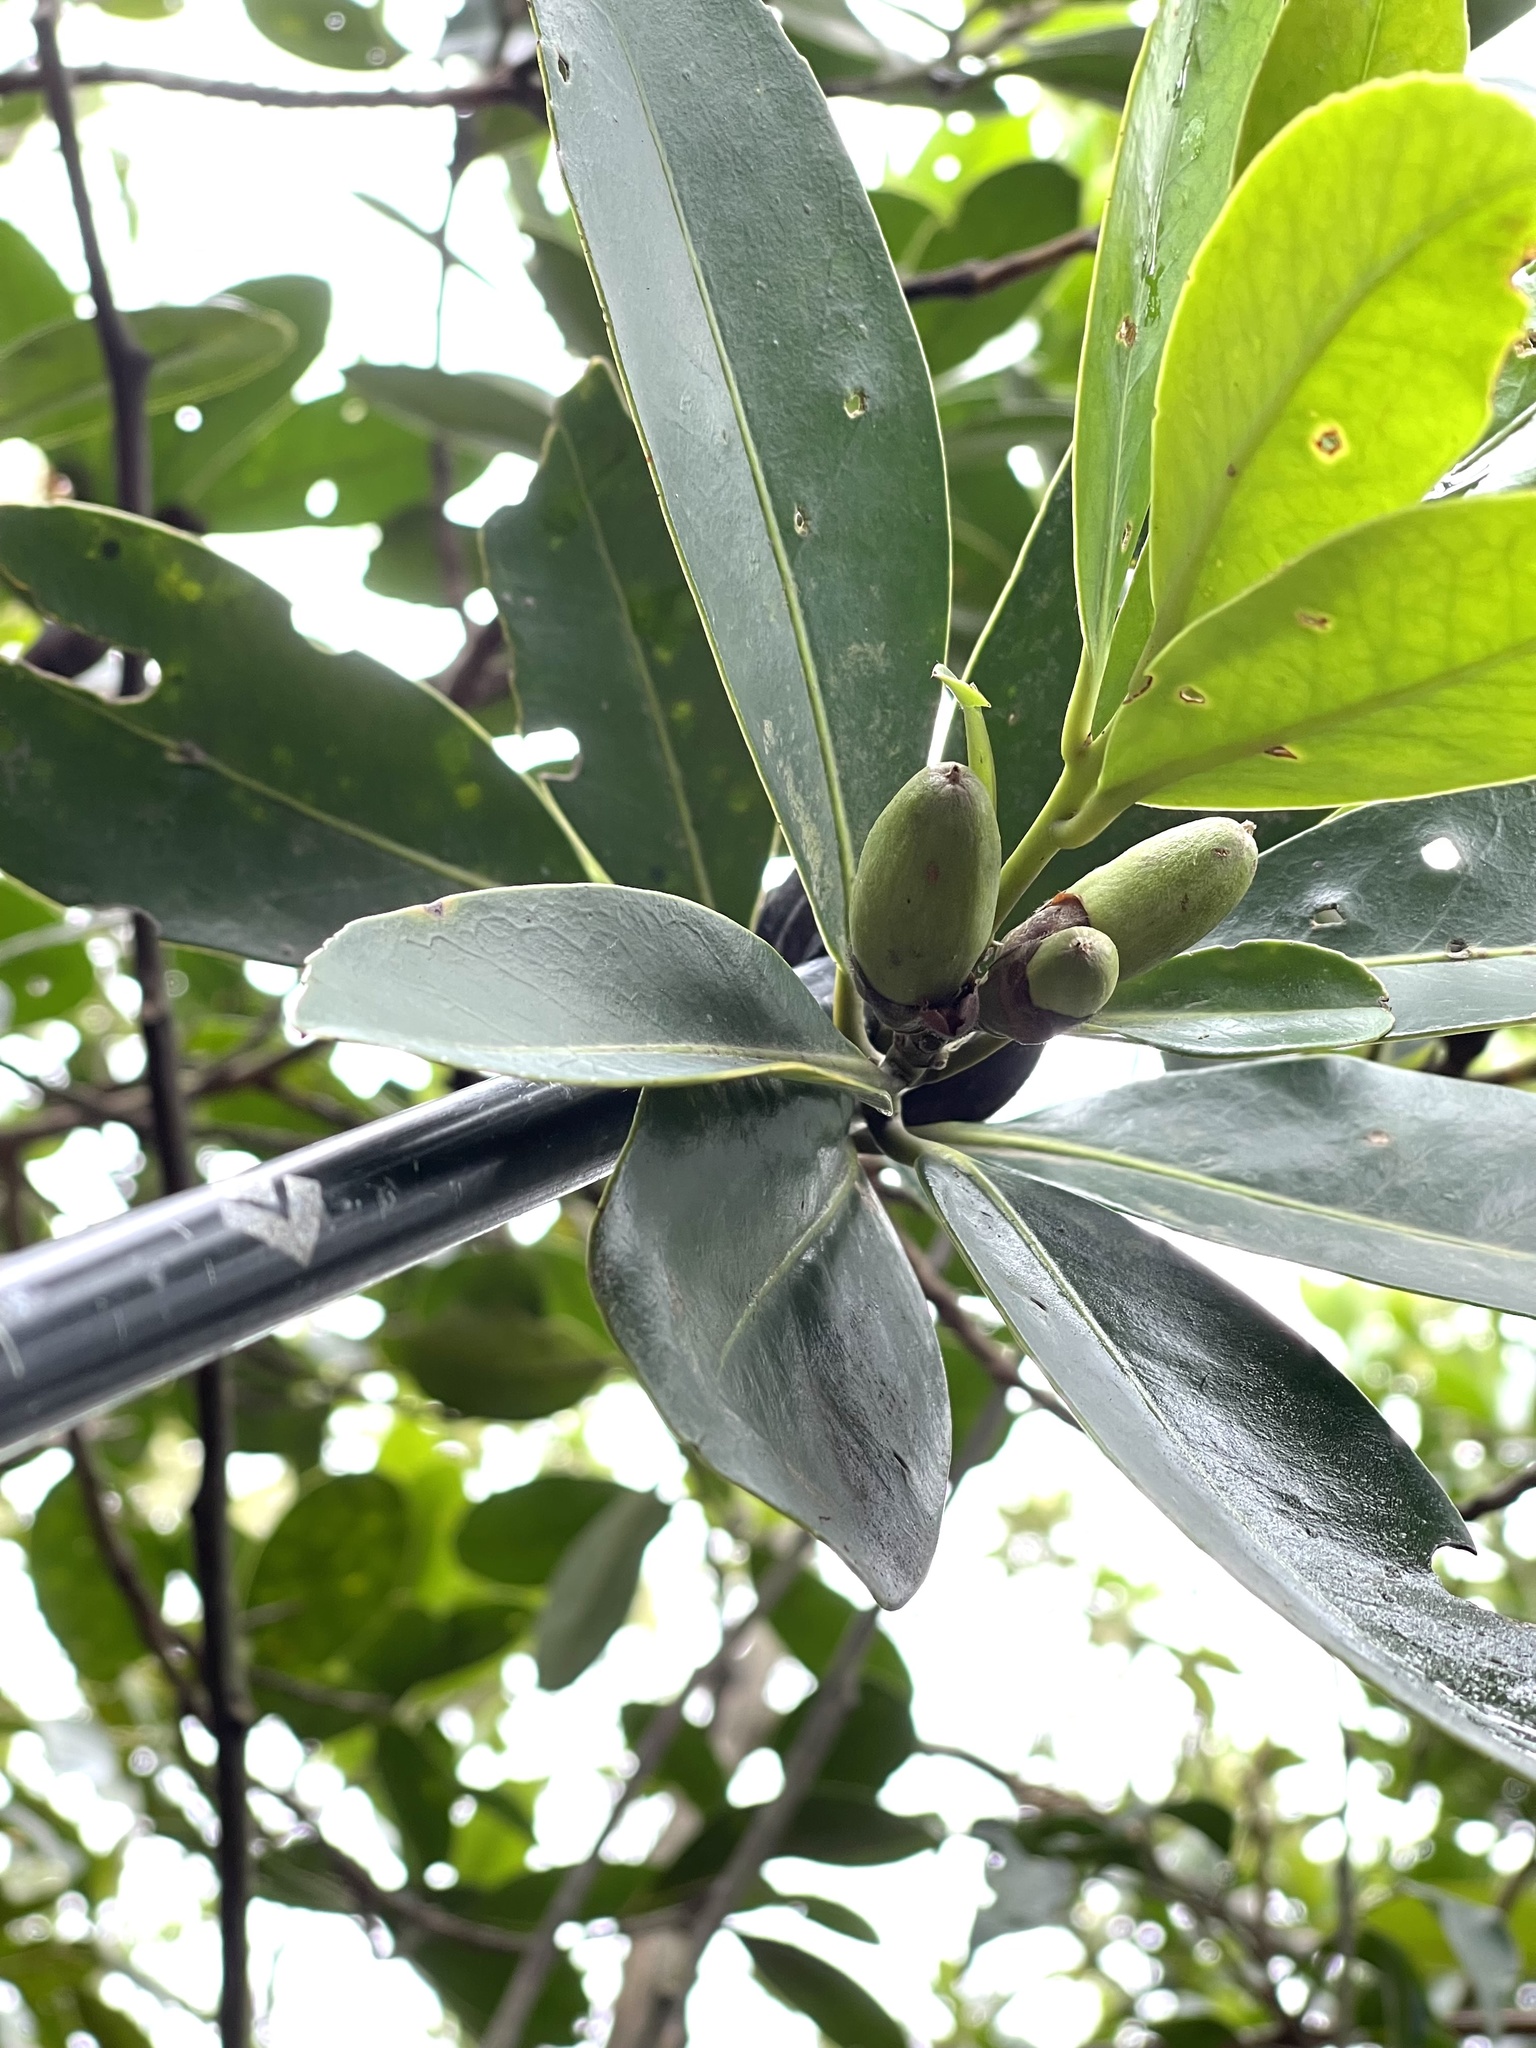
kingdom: Plantae
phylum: Tracheophyta
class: Magnoliopsida
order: Ericales
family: Theaceae
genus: Polyspora
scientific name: Polyspora axillaris
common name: Fried egg tree
